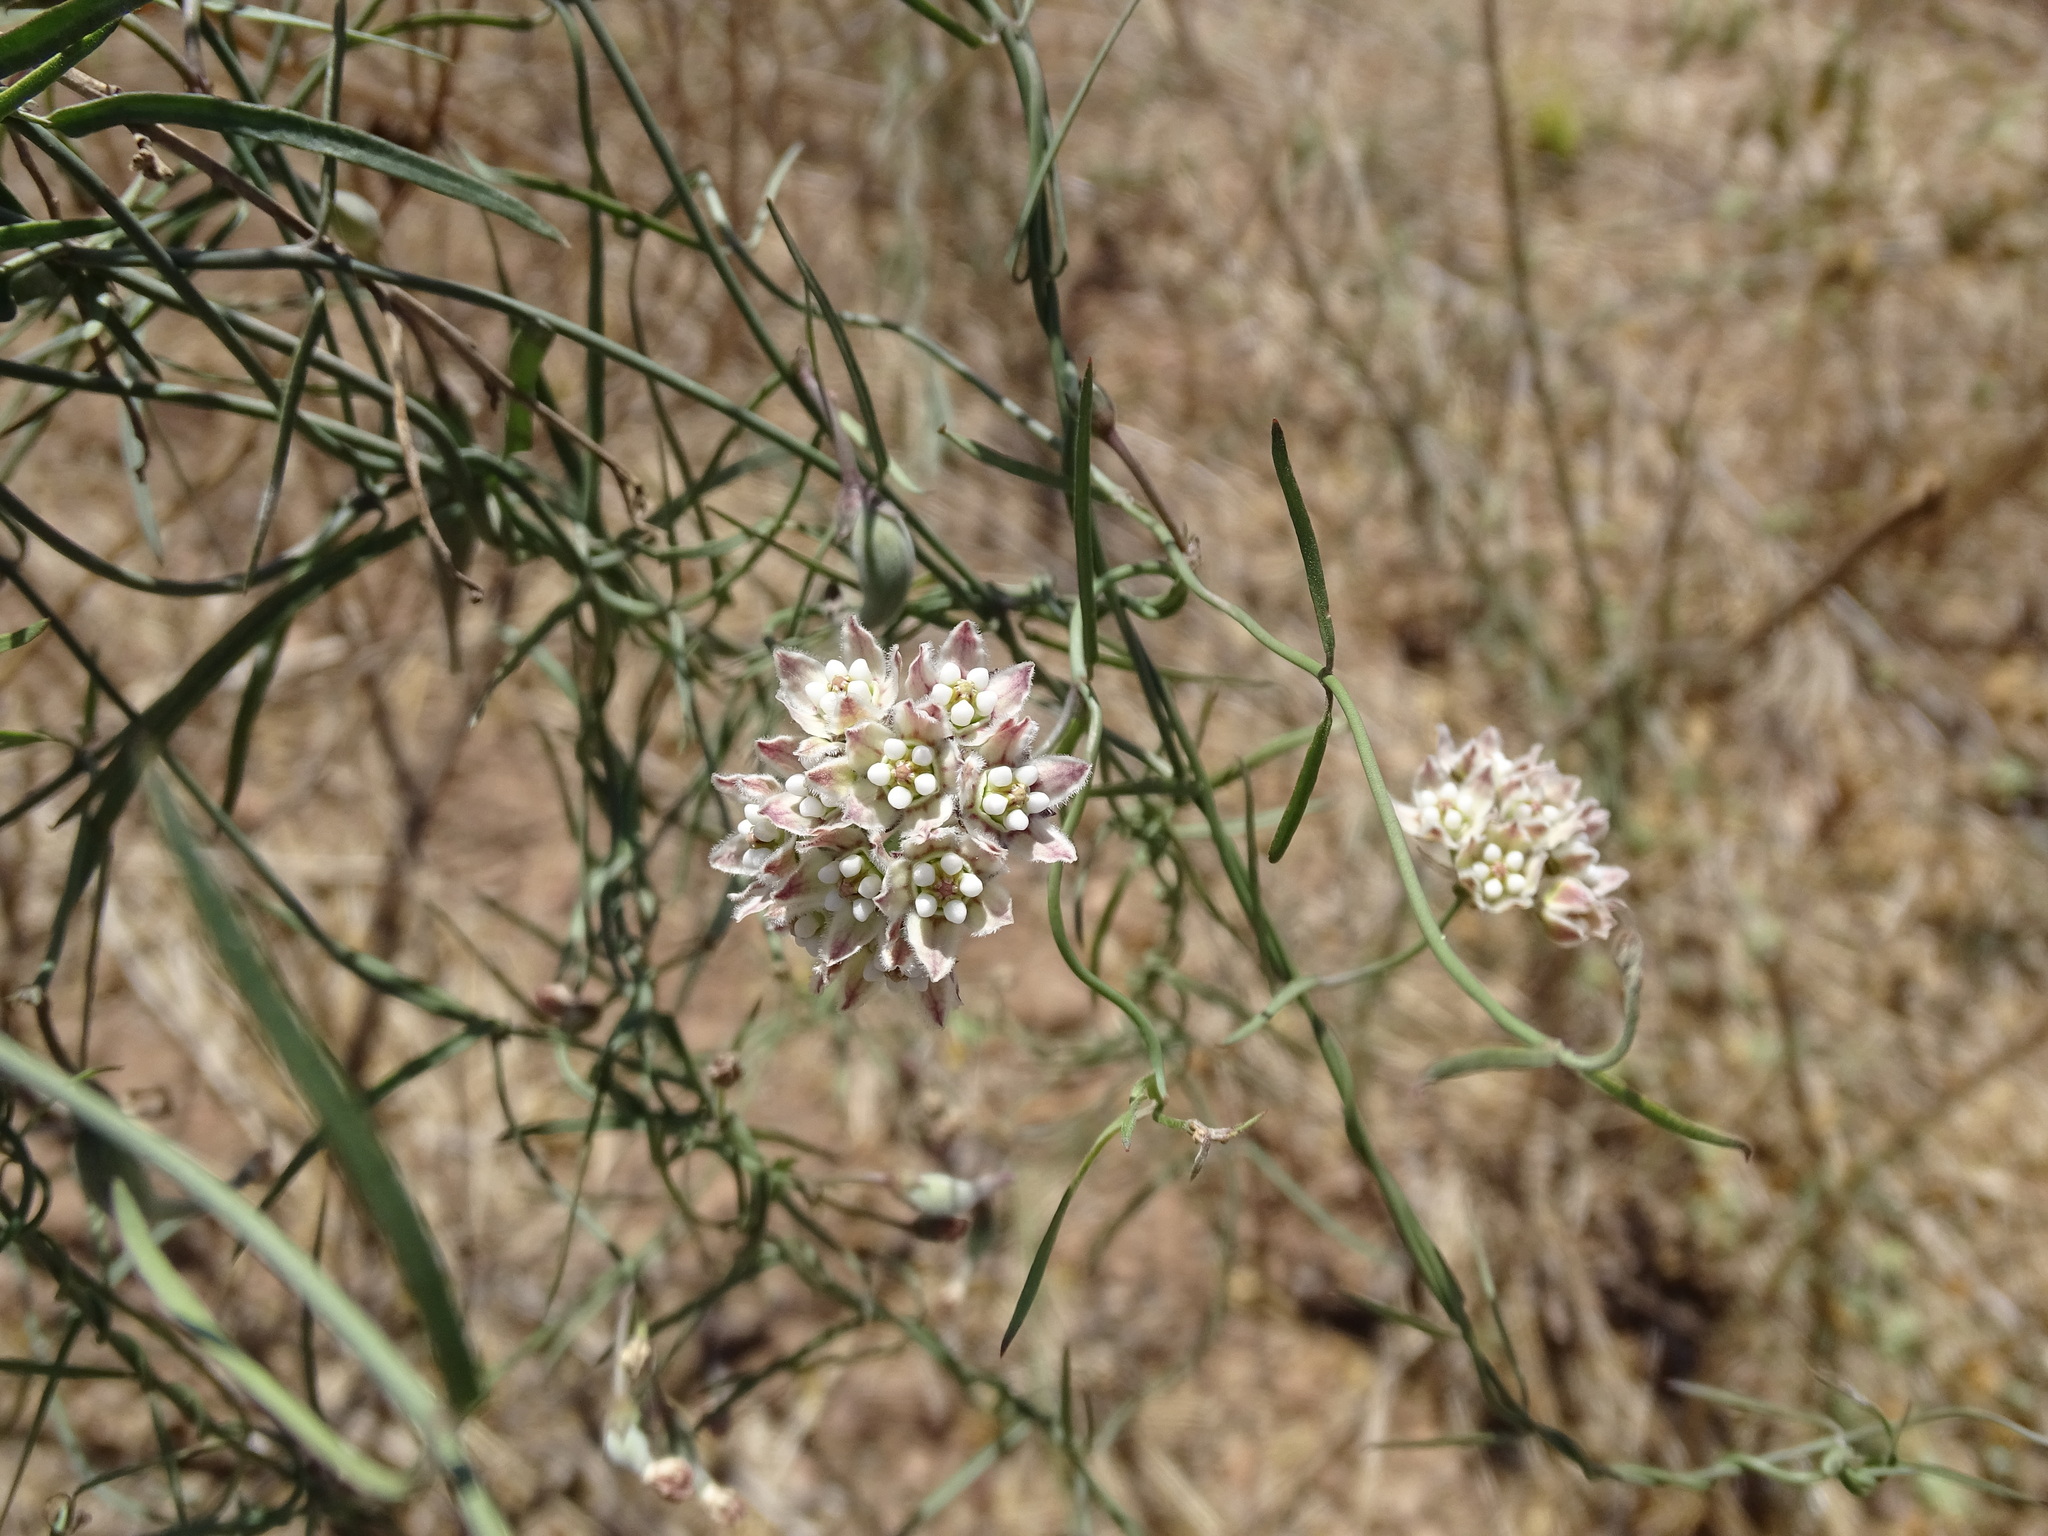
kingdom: Plantae
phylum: Tracheophyta
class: Magnoliopsida
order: Gentianales
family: Apocynaceae
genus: Funastrum
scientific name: Funastrum heterophyllum
